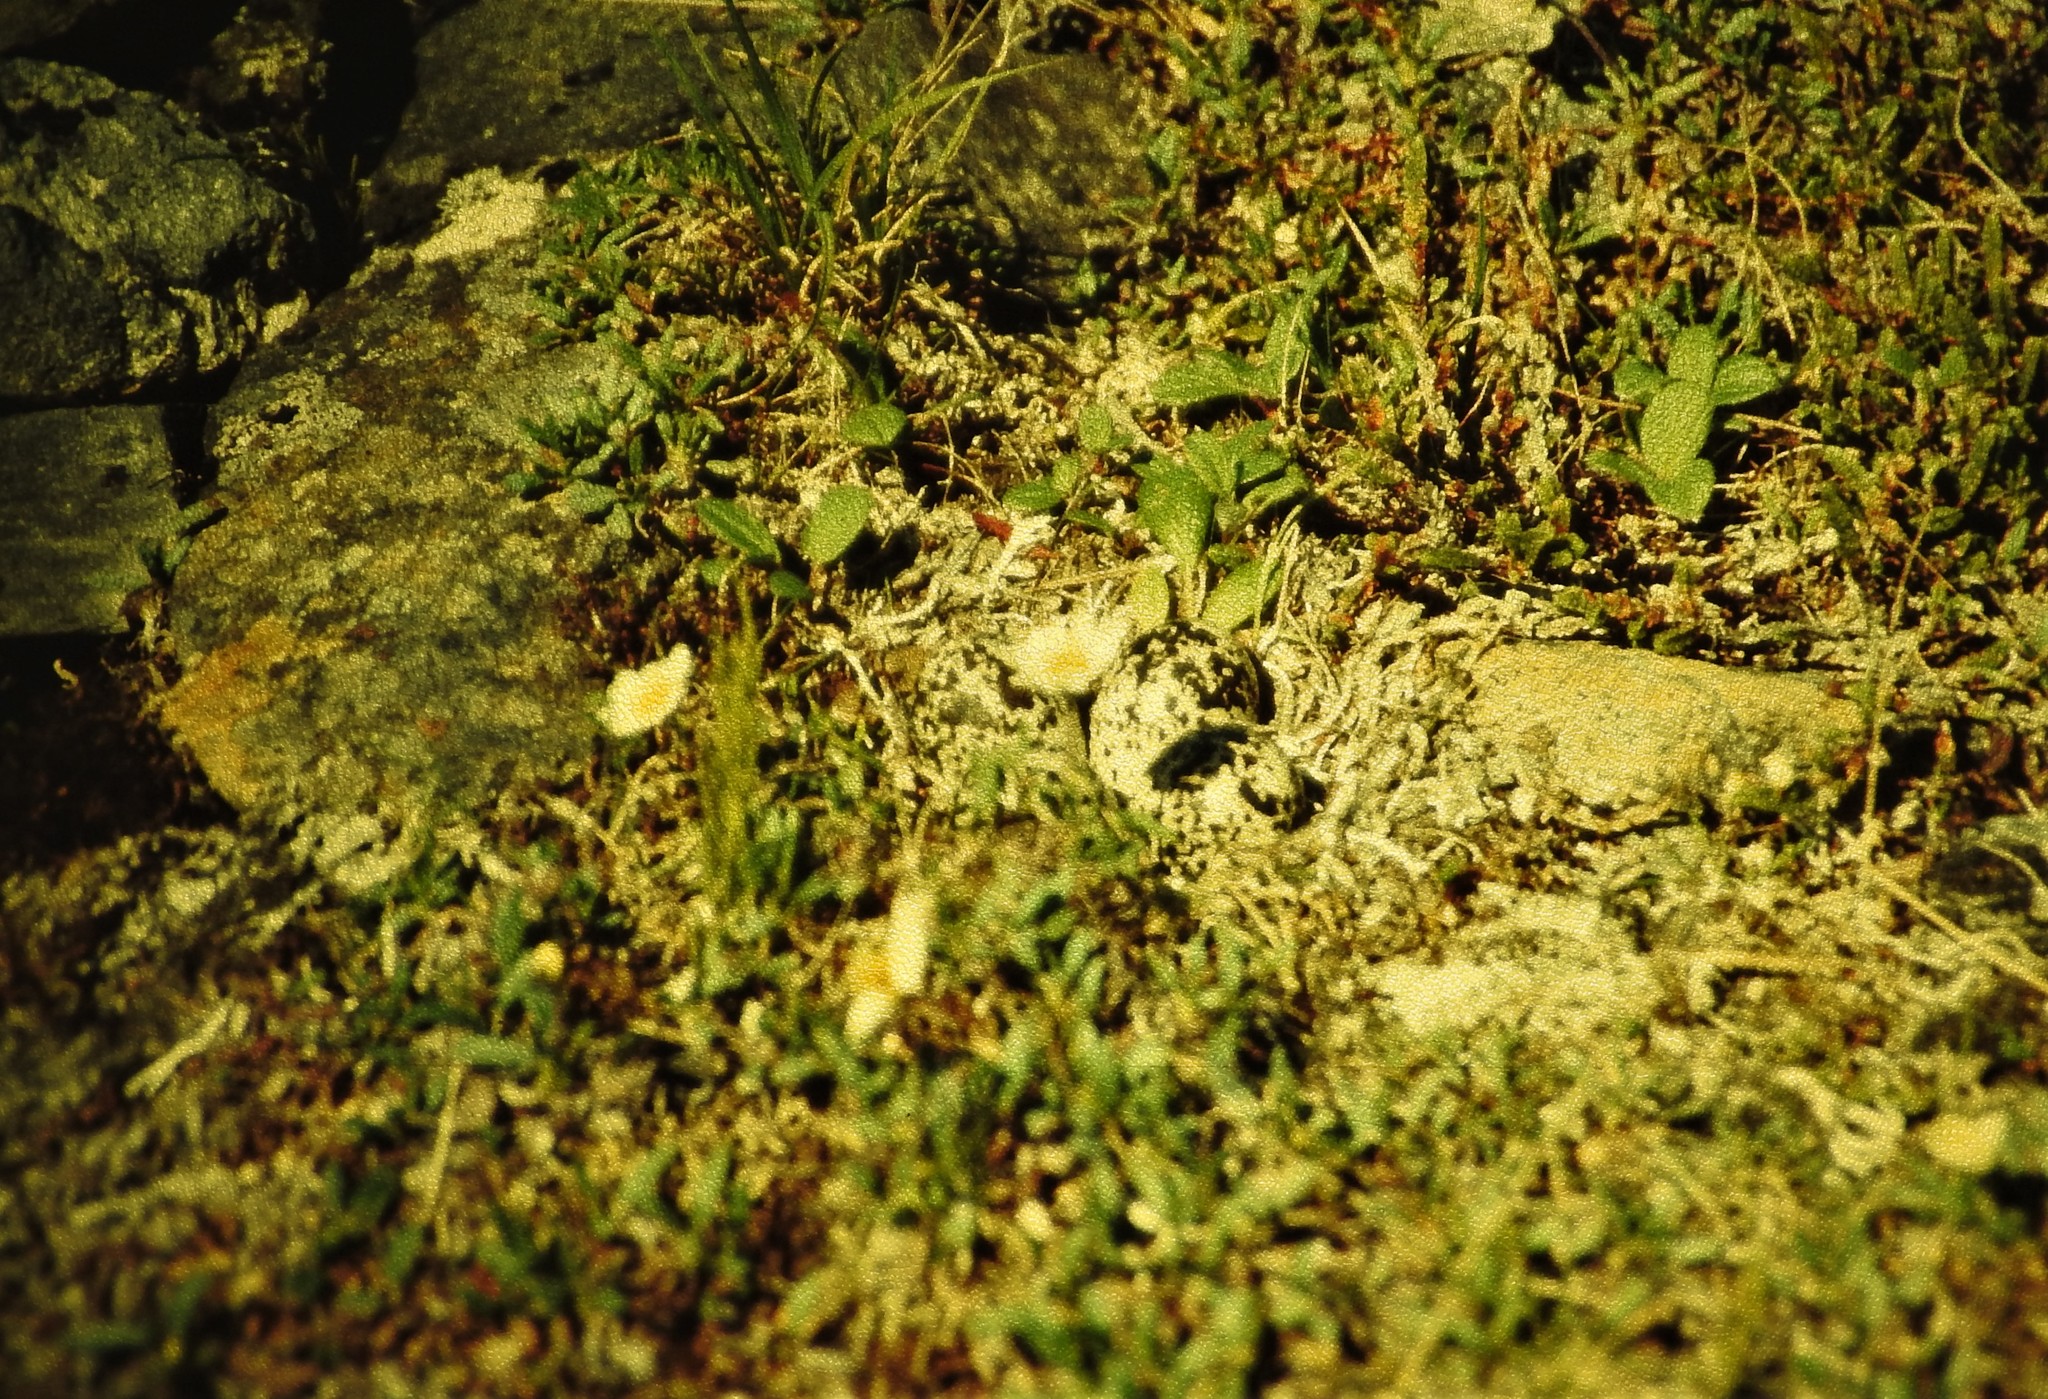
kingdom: Animalia
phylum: Chordata
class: Aves
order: Charadriiformes
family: Charadriidae
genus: Pluvialis
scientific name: Pluvialis dominica
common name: American golden plover
